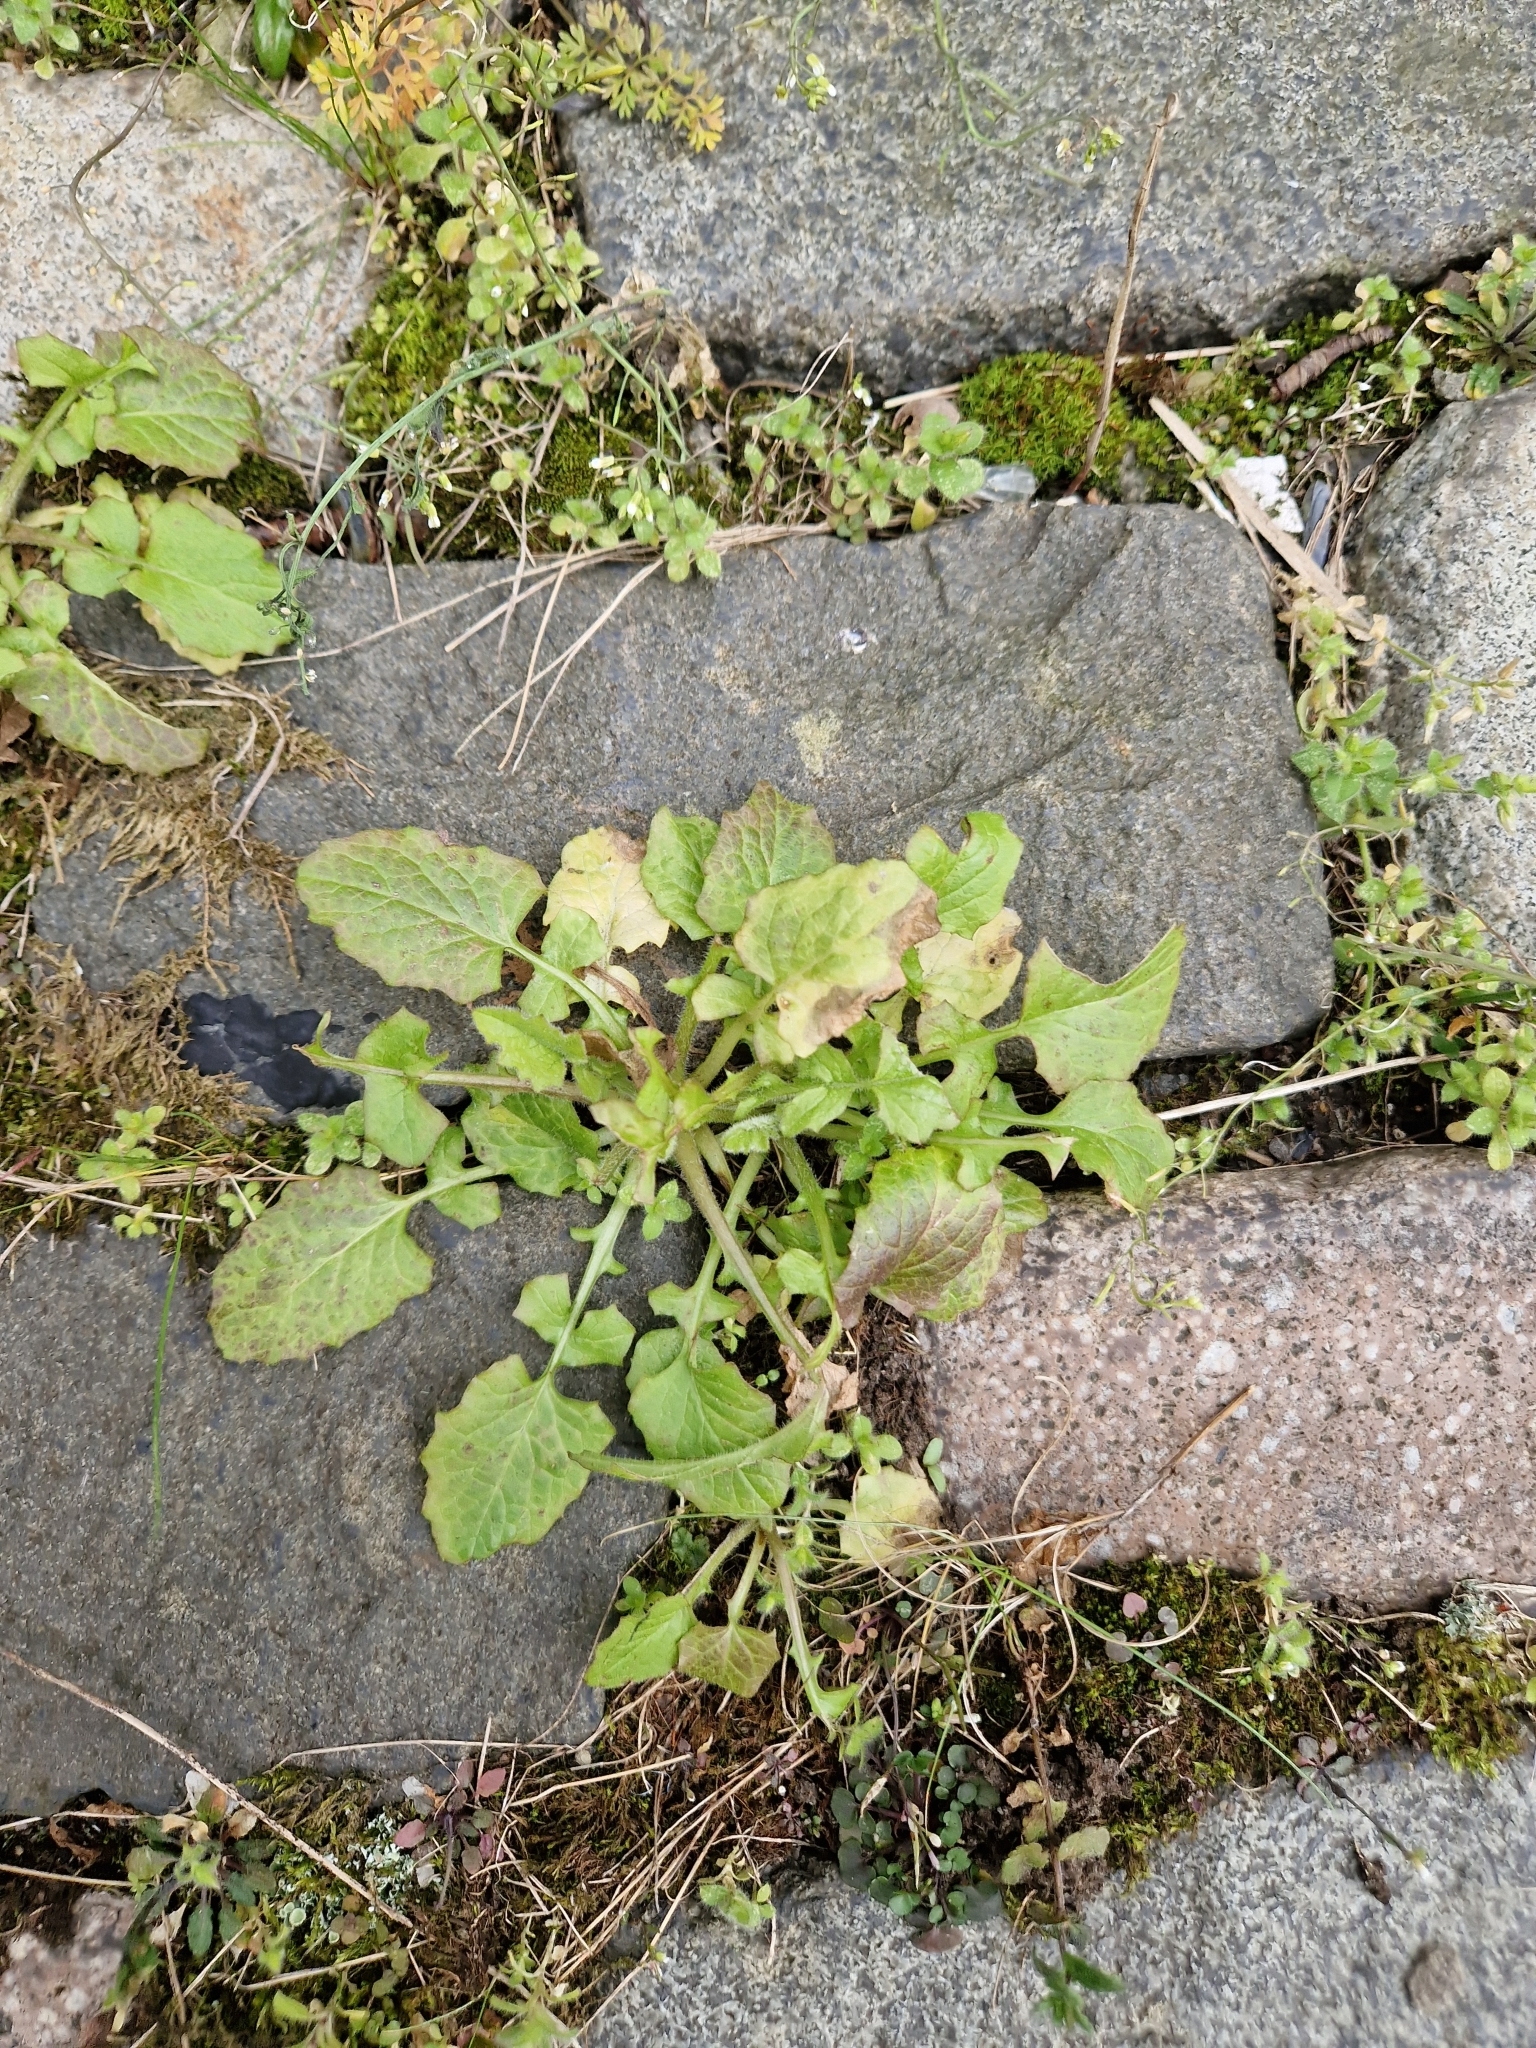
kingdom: Fungi
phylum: Basidiomycota
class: Pucciniomycetes
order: Pucciniales
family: Pucciniaceae
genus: Puccinia
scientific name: Puccinia lapsanae
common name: Nipplewort rust
